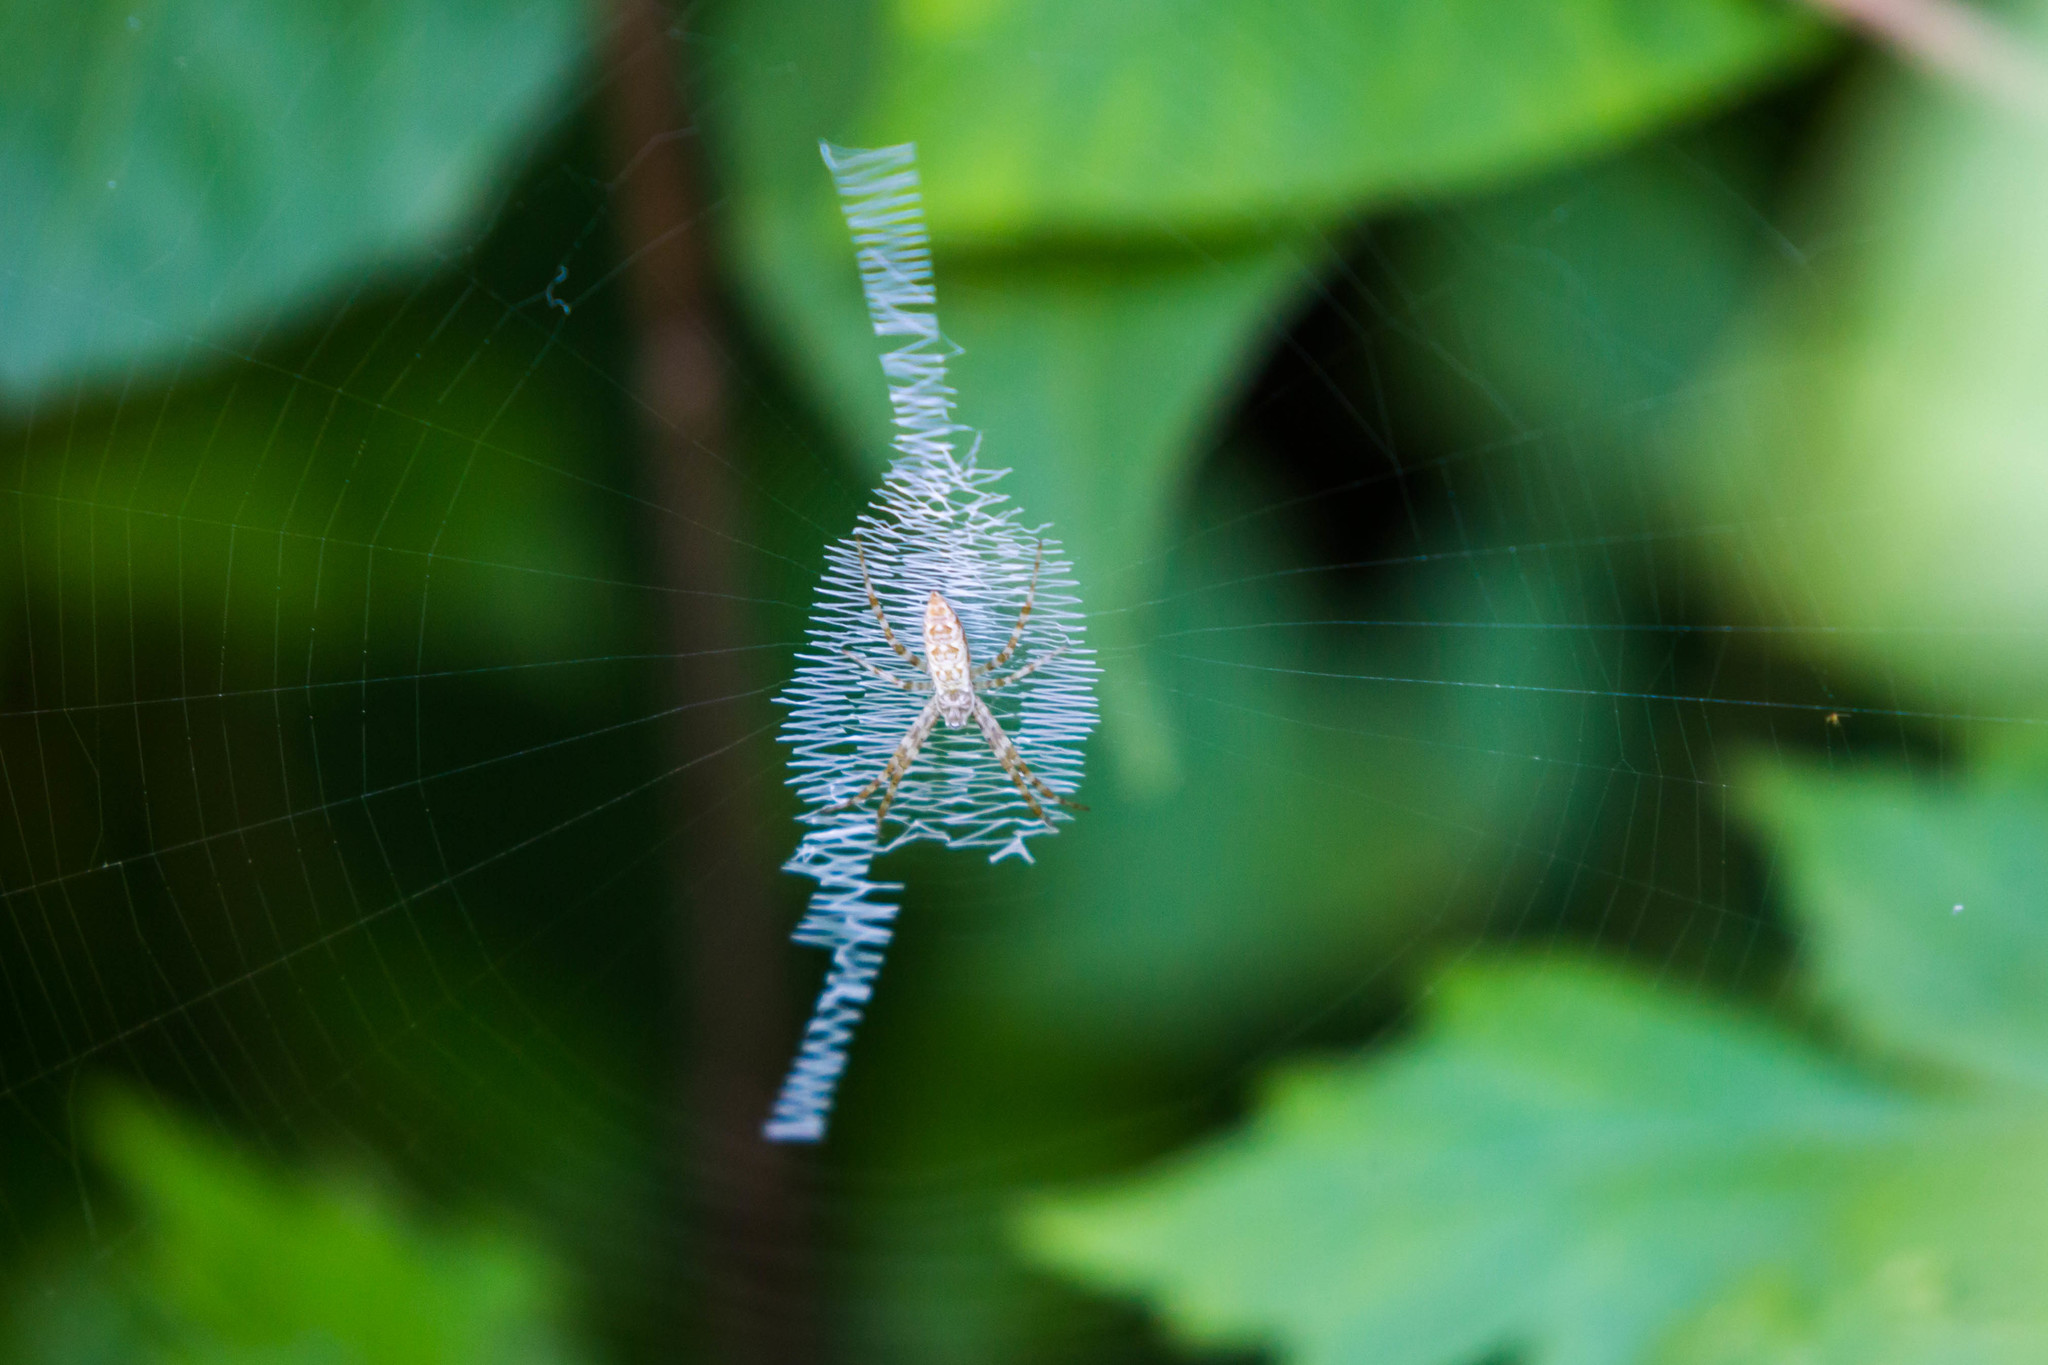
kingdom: Animalia
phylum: Arthropoda
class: Arachnida
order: Araneae
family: Araneidae
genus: Argiope
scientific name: Argiope aurantia
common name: Orb weavers
